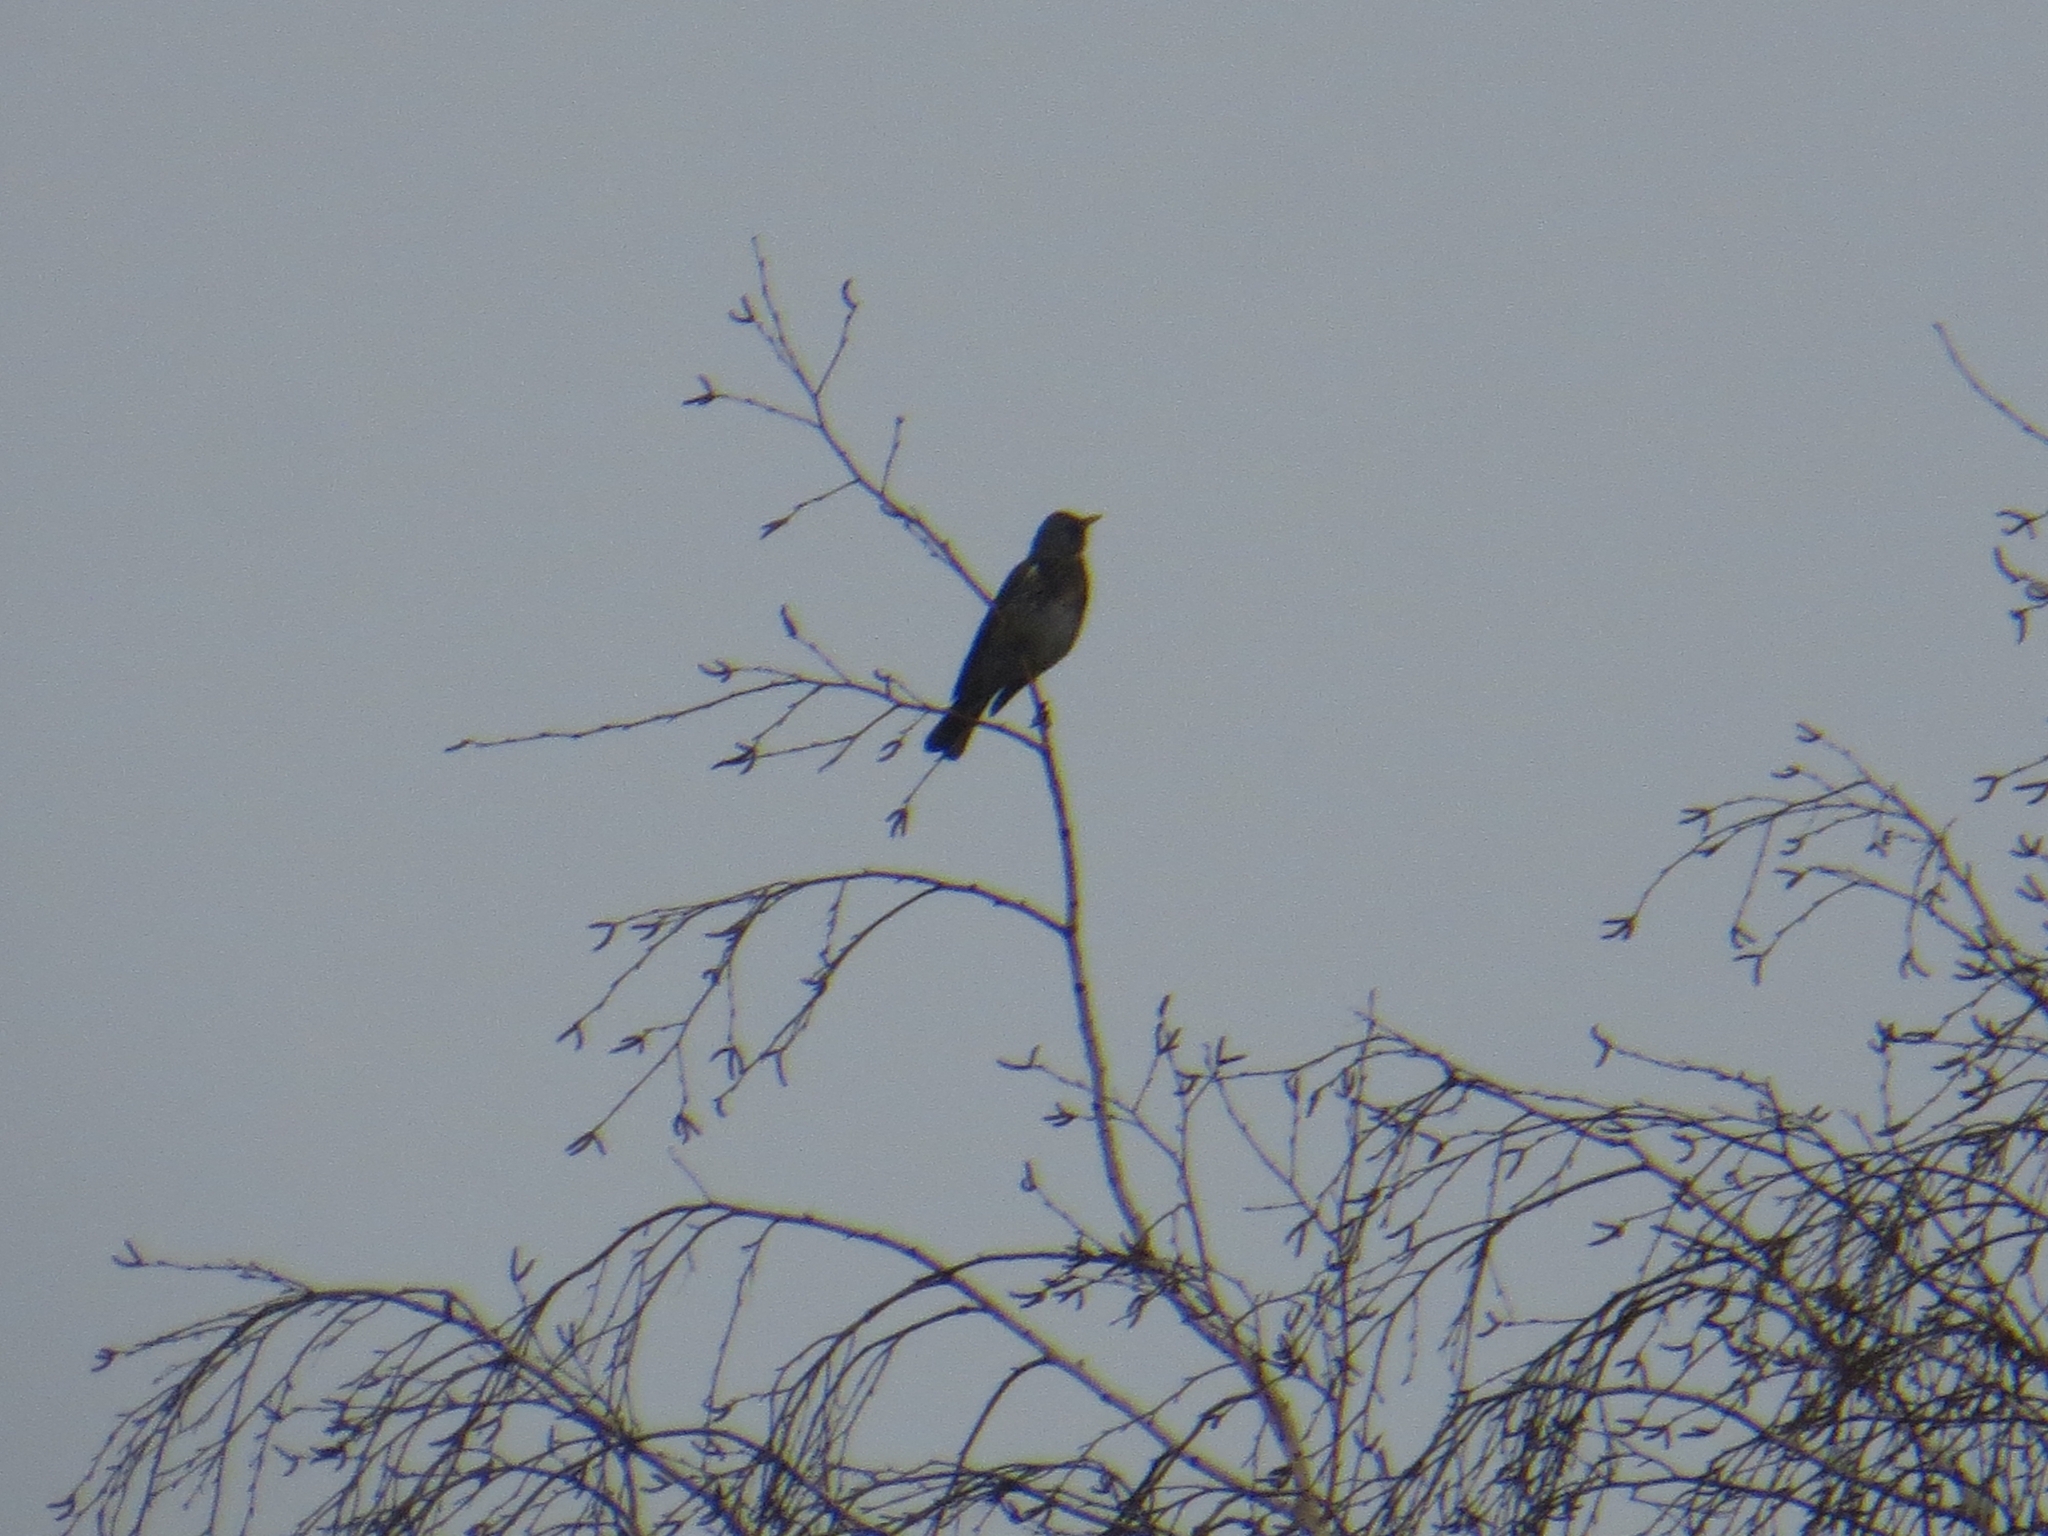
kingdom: Animalia
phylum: Chordata
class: Aves
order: Passeriformes
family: Turdidae
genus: Turdus
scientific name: Turdus pilaris
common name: Fieldfare
